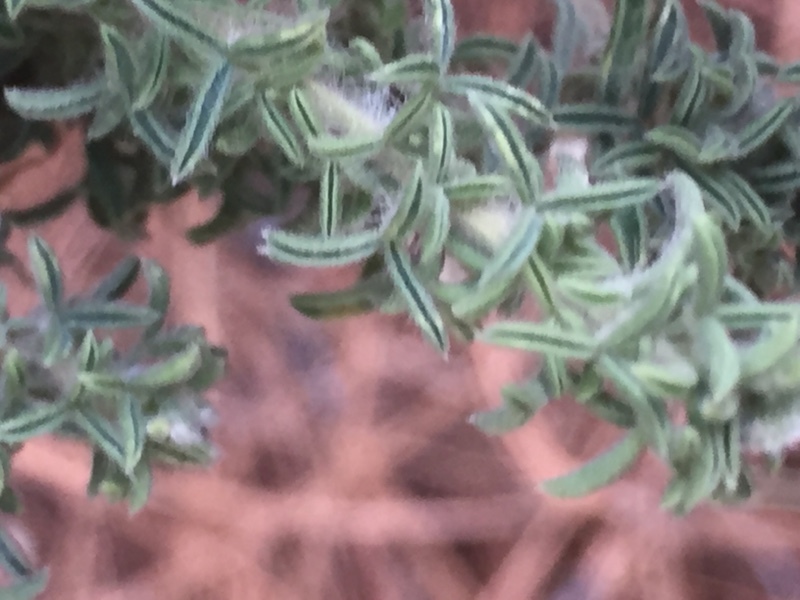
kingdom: Plantae
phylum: Tracheophyta
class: Magnoliopsida
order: Fabales
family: Fabaceae
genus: Adenocarpus
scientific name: Adenocarpus viscosus
